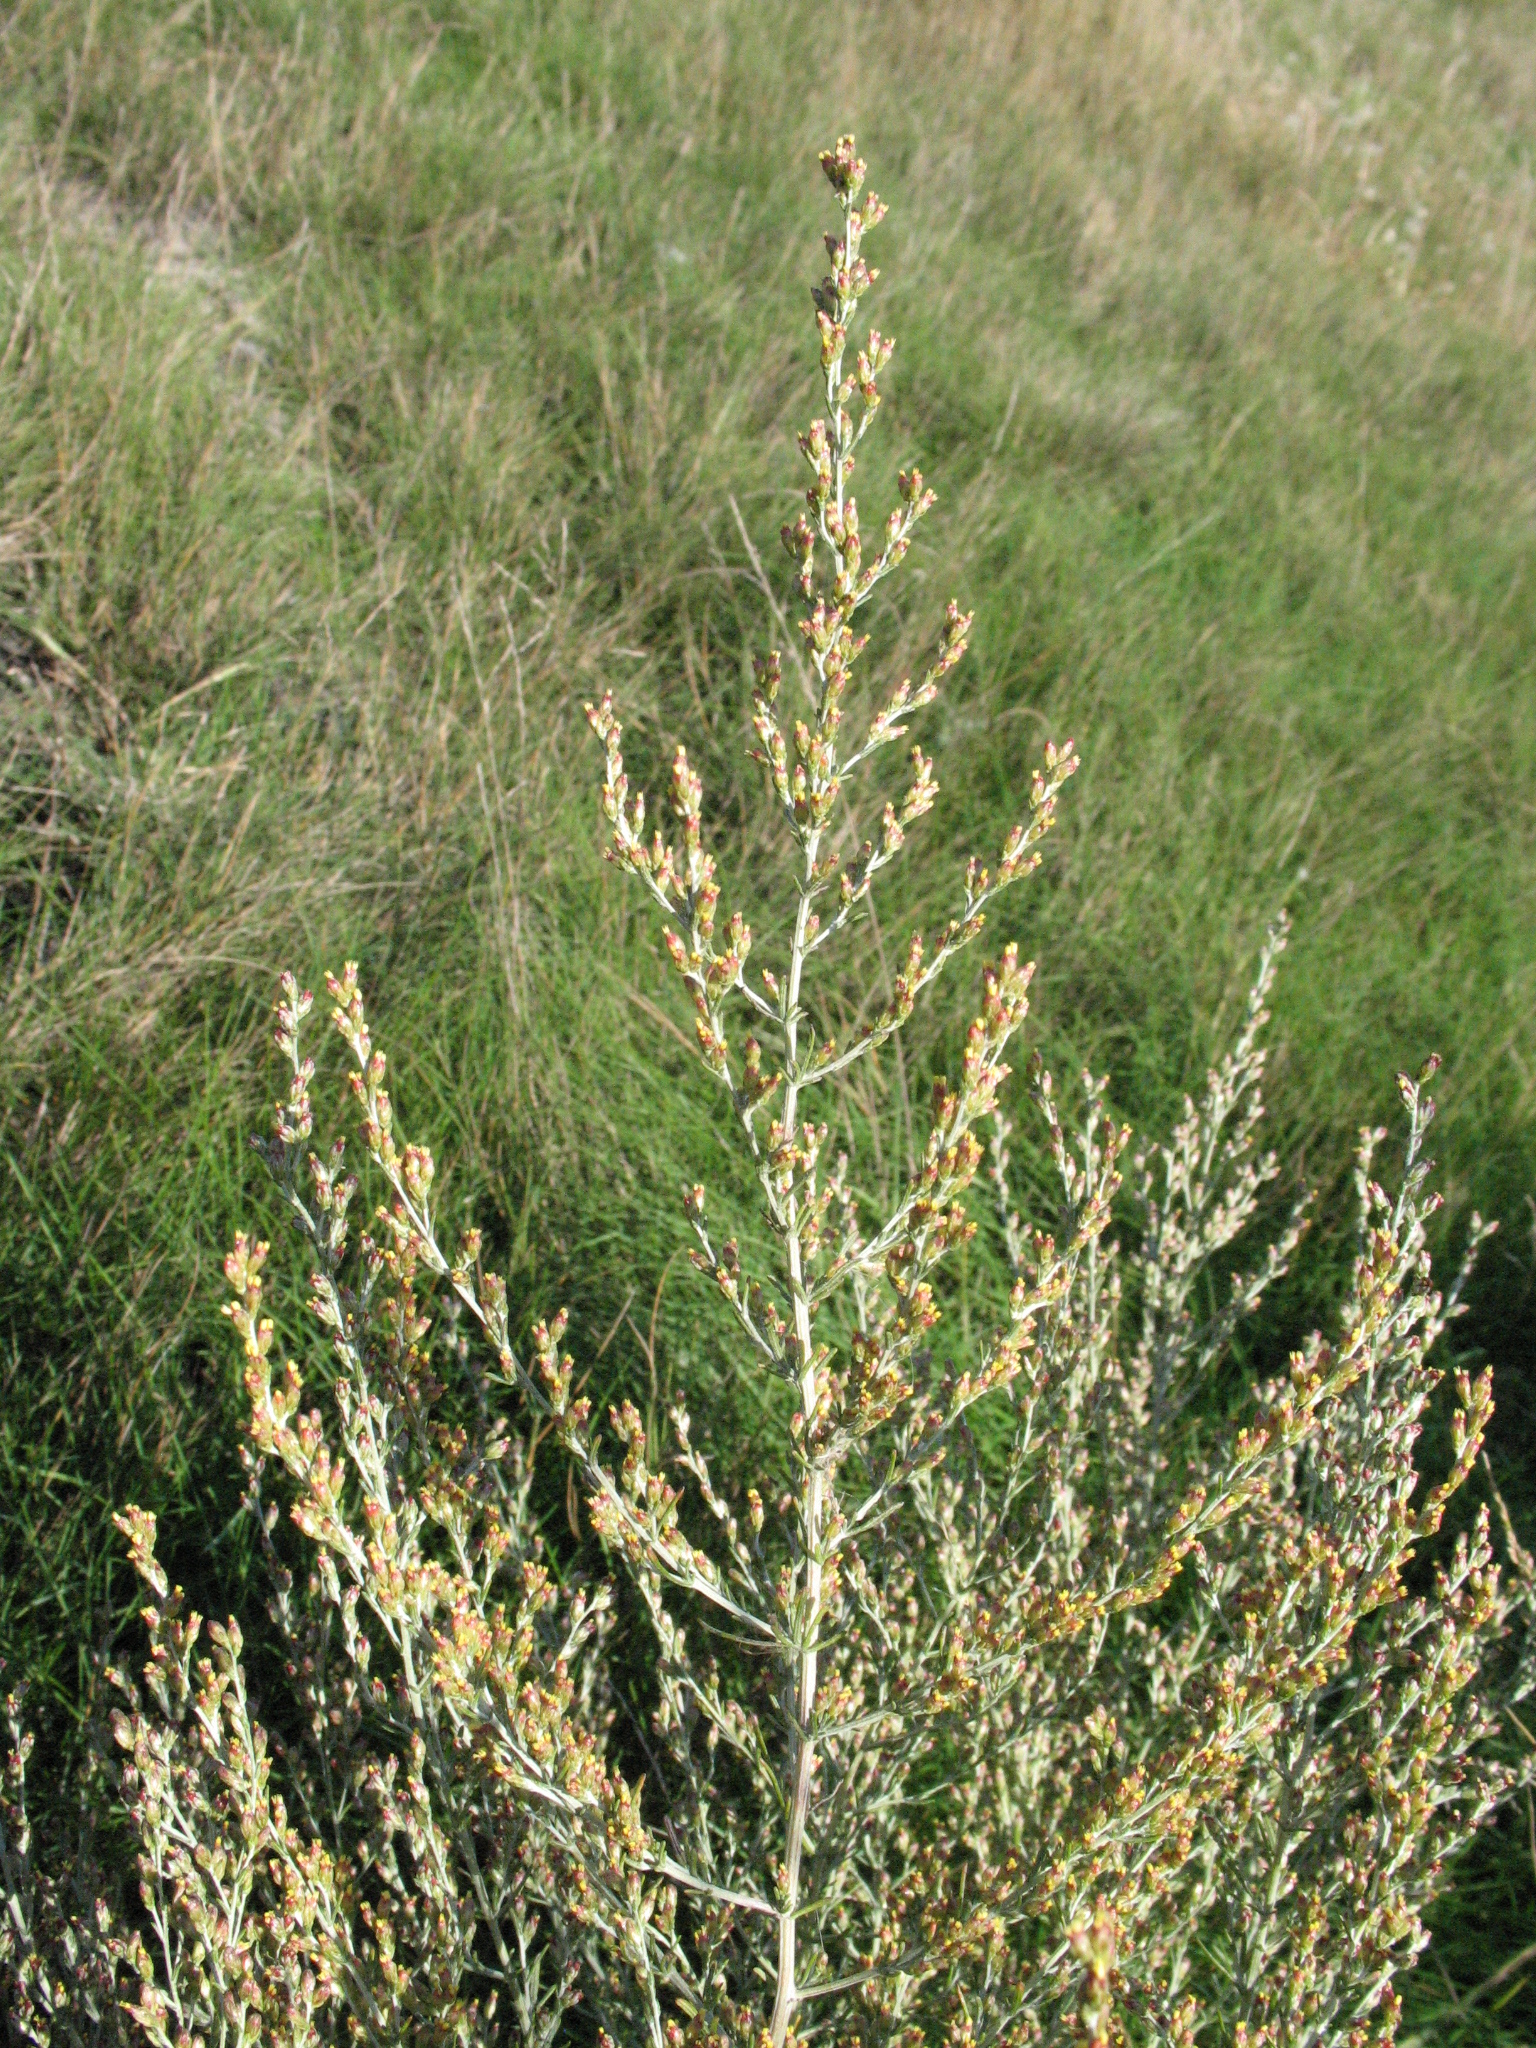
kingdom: Plantae
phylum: Tracheophyta
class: Magnoliopsida
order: Asterales
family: Asteraceae
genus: Artemisia
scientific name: Artemisia santonicum
